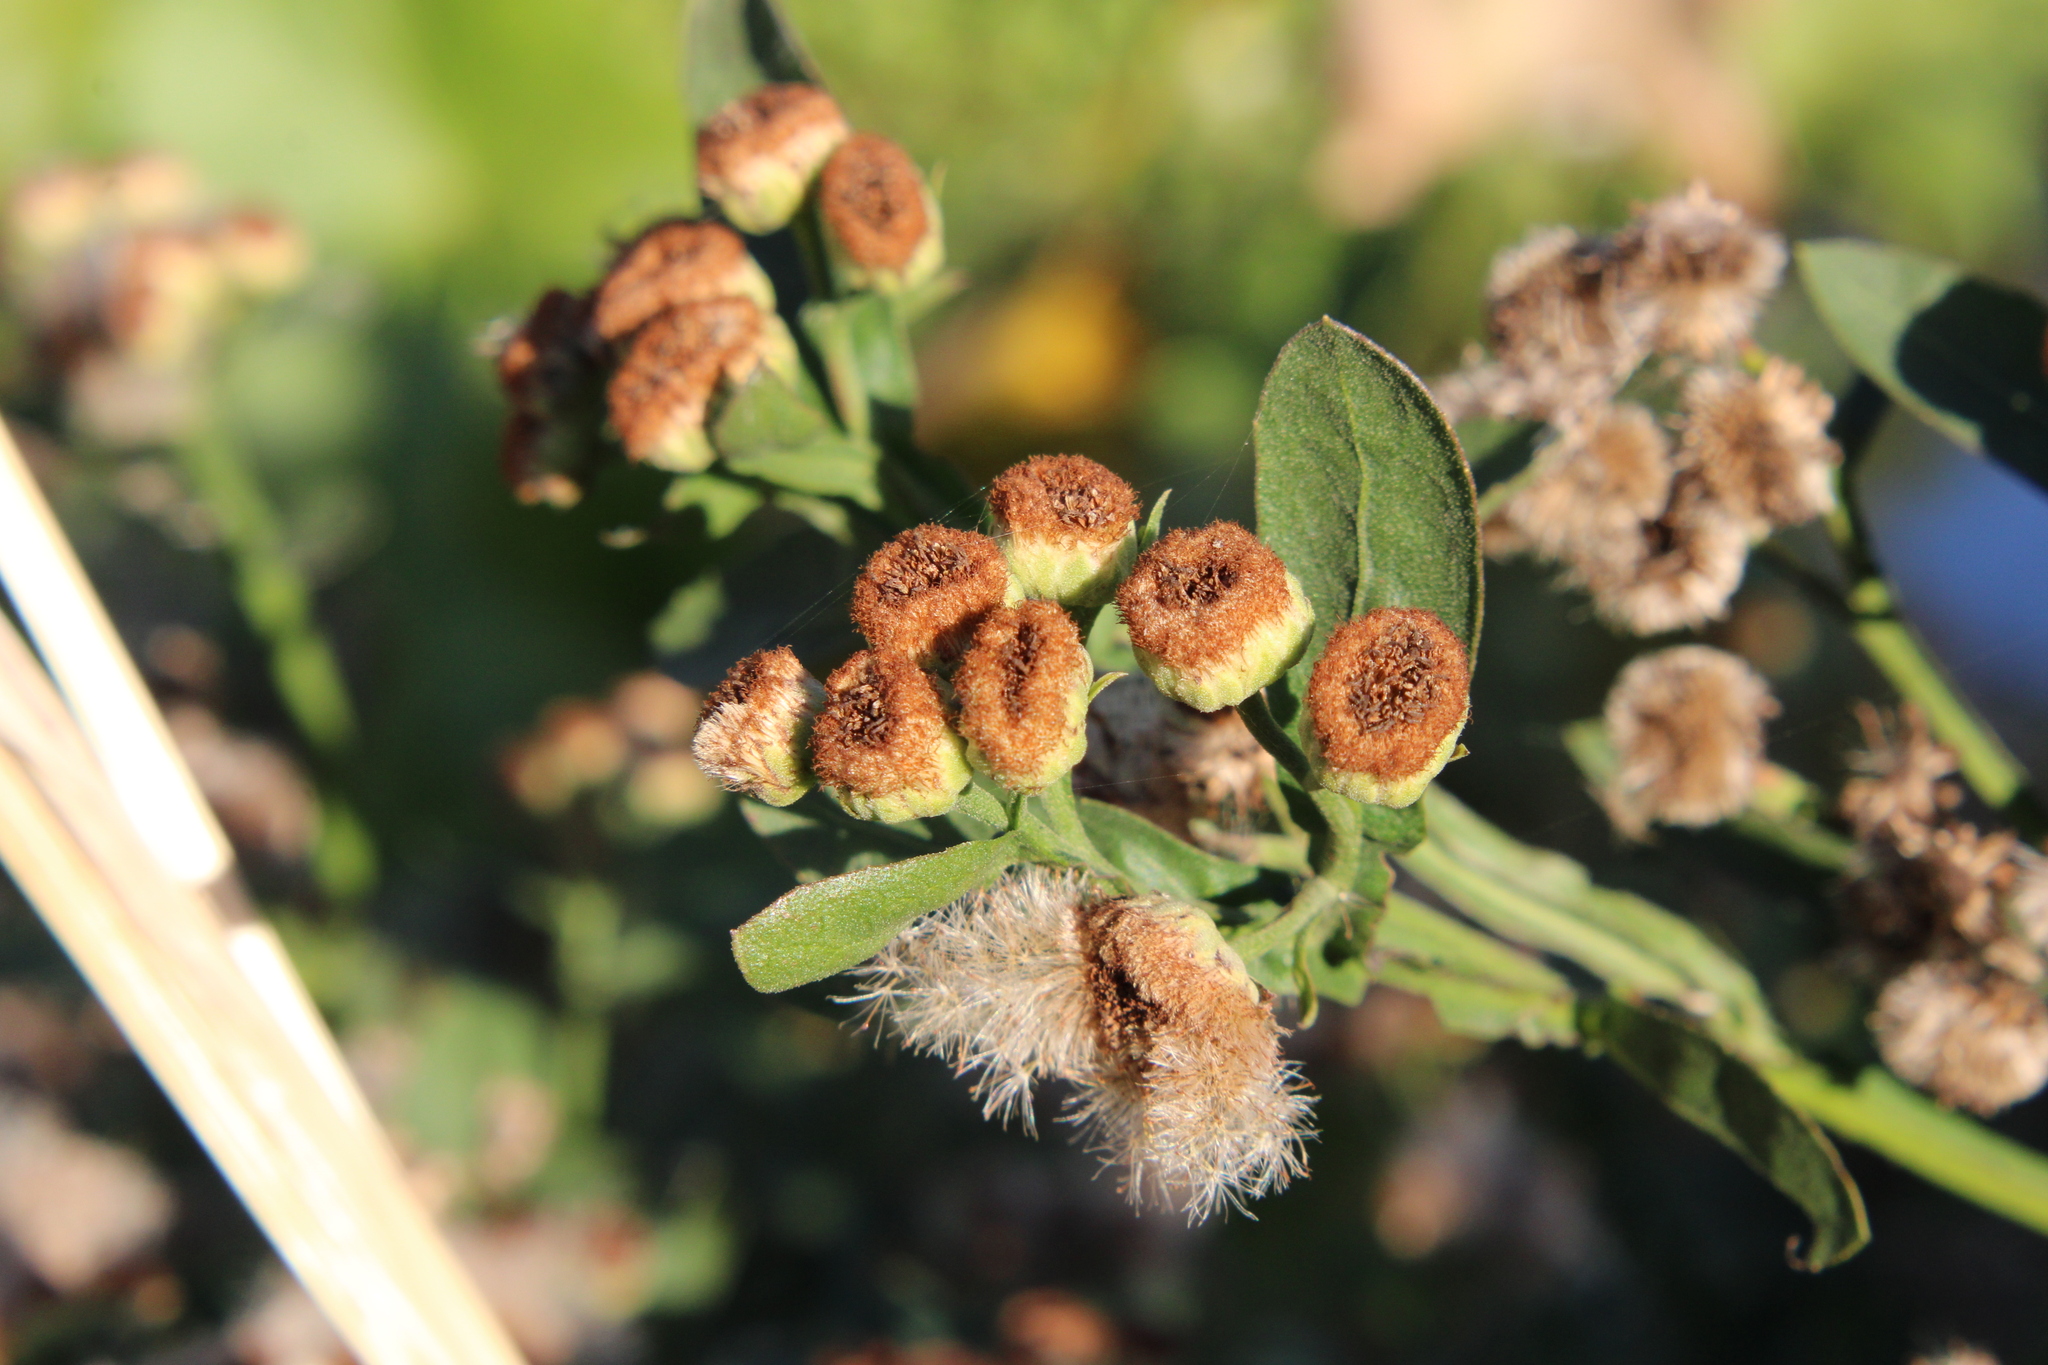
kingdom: Plantae
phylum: Tracheophyta
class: Magnoliopsida
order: Asterales
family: Asteraceae
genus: Pluchea
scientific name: Pluchea sagittalis
